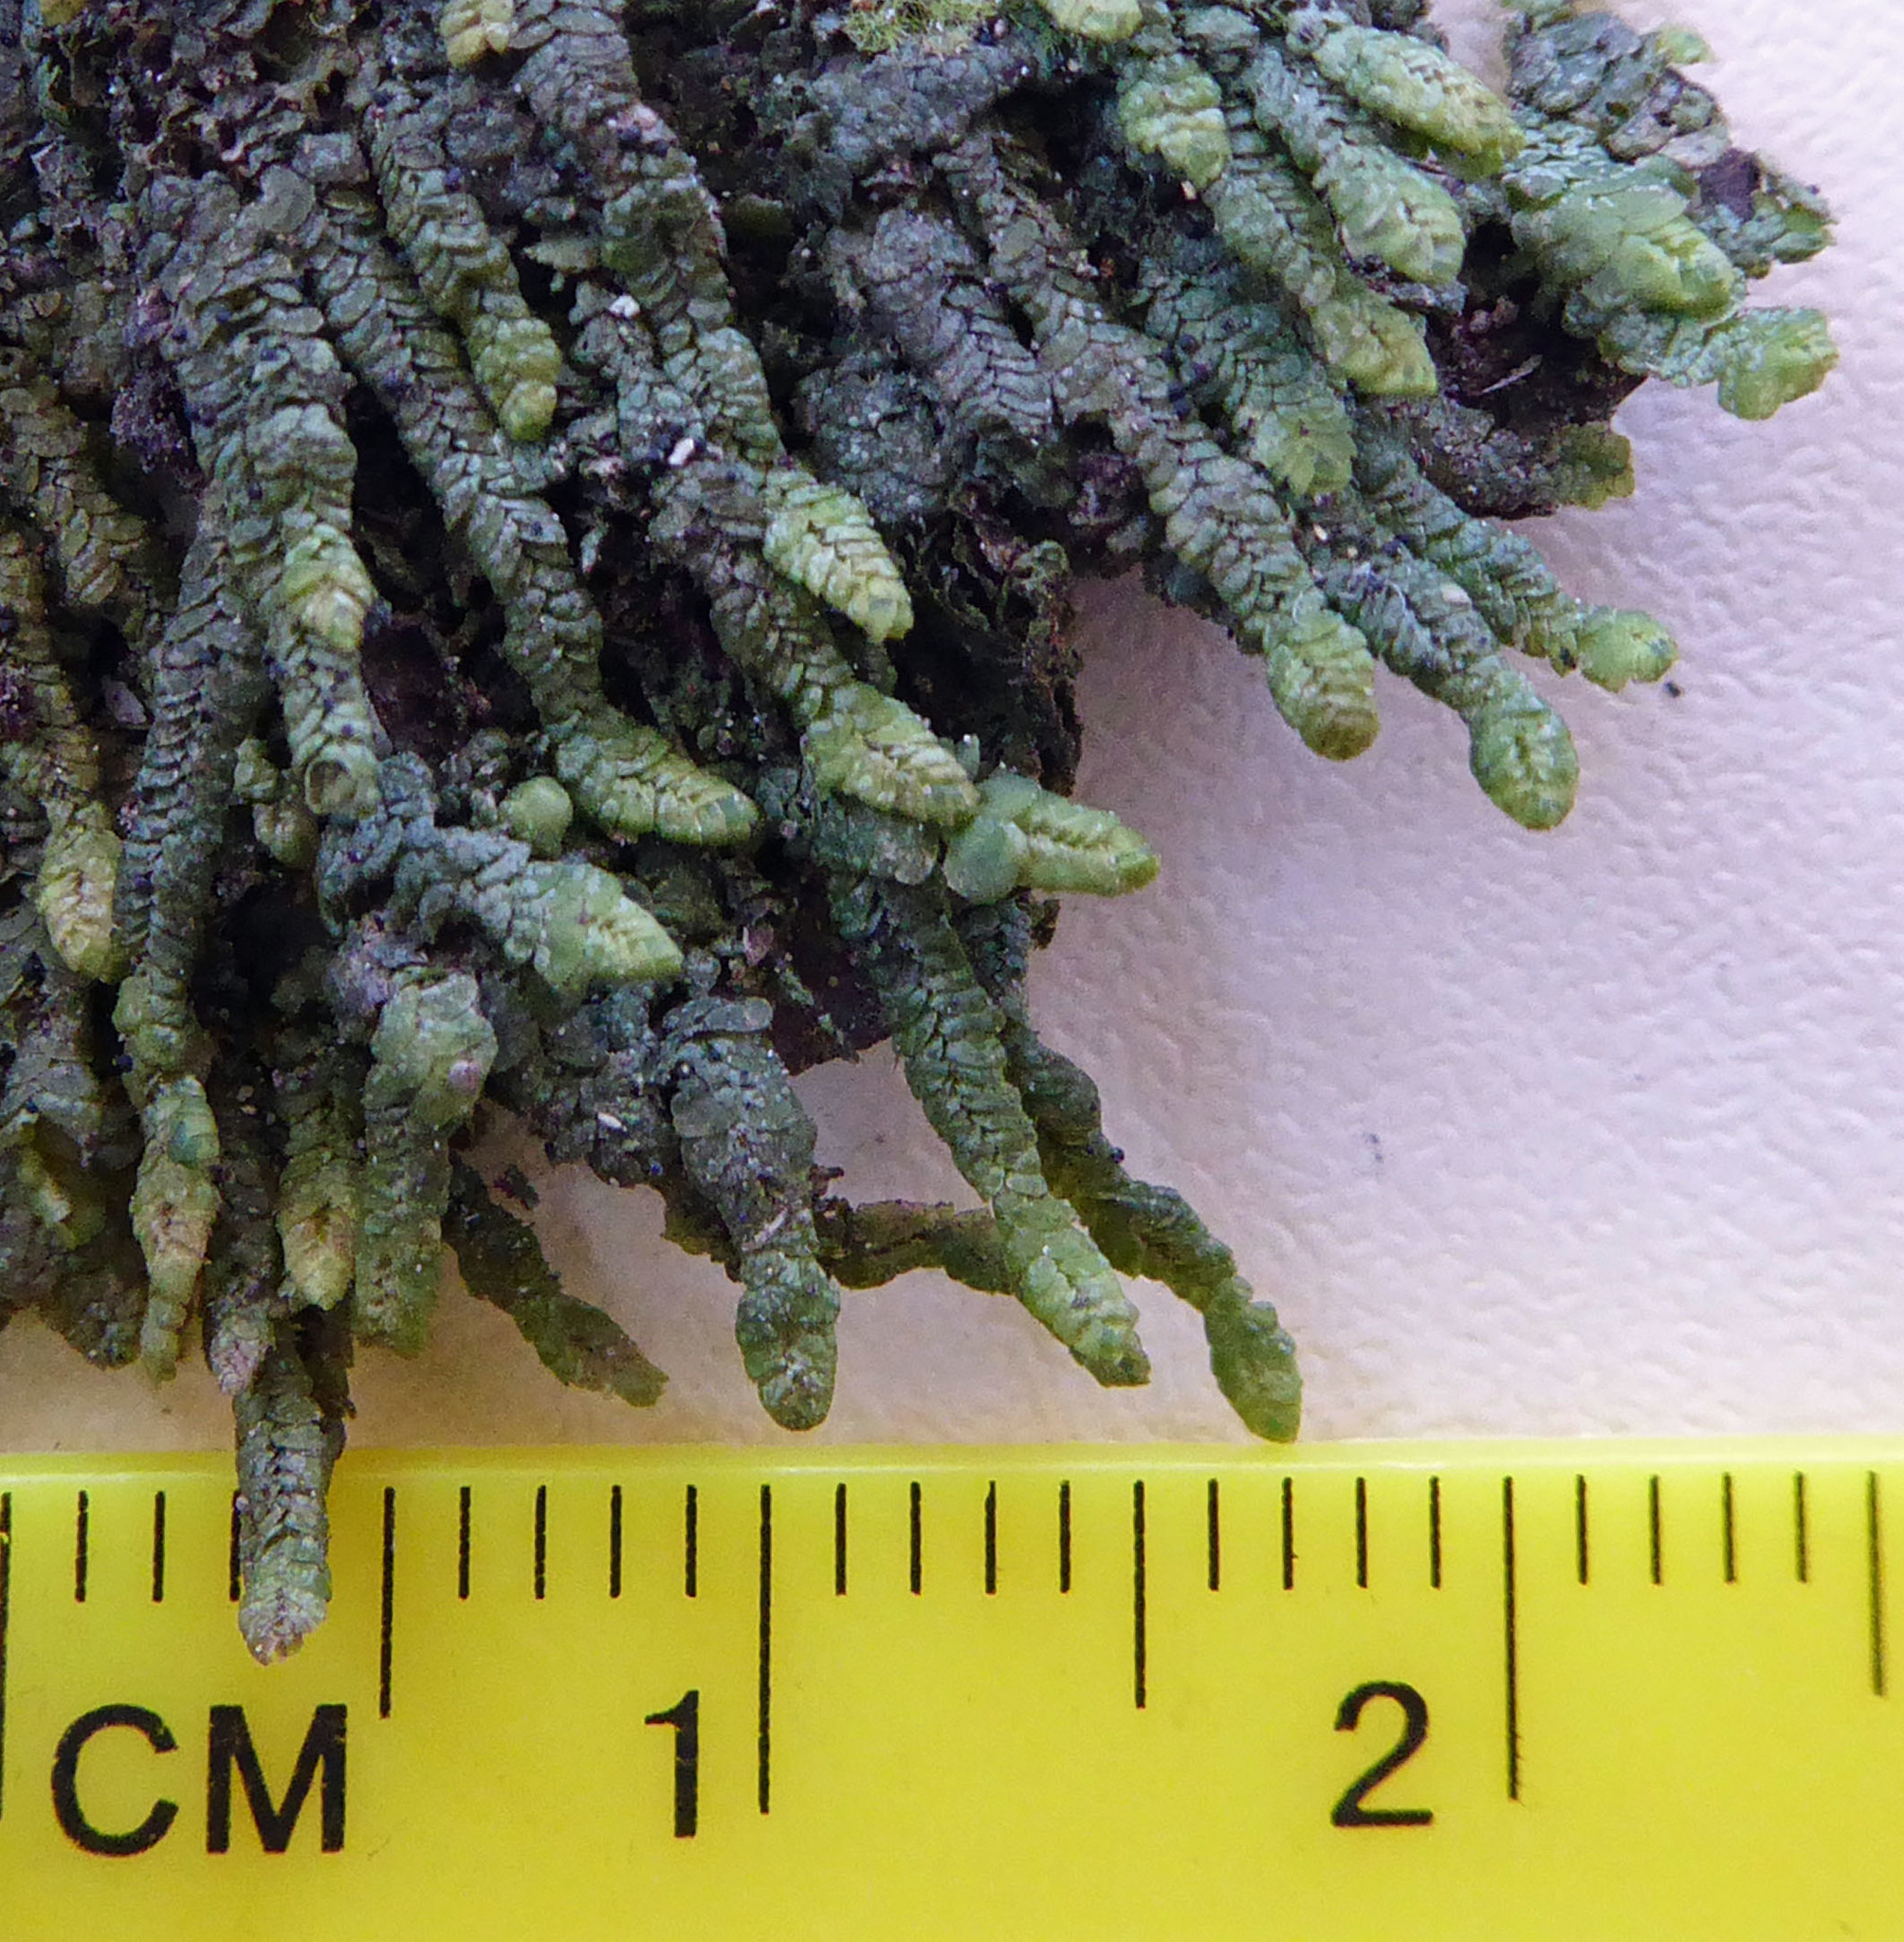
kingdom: Plantae
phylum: Marchantiophyta
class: Jungermanniopsida
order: Porellales
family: Lejeuneaceae
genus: Spruceanthus
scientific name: Spruceanthus olivaceus
